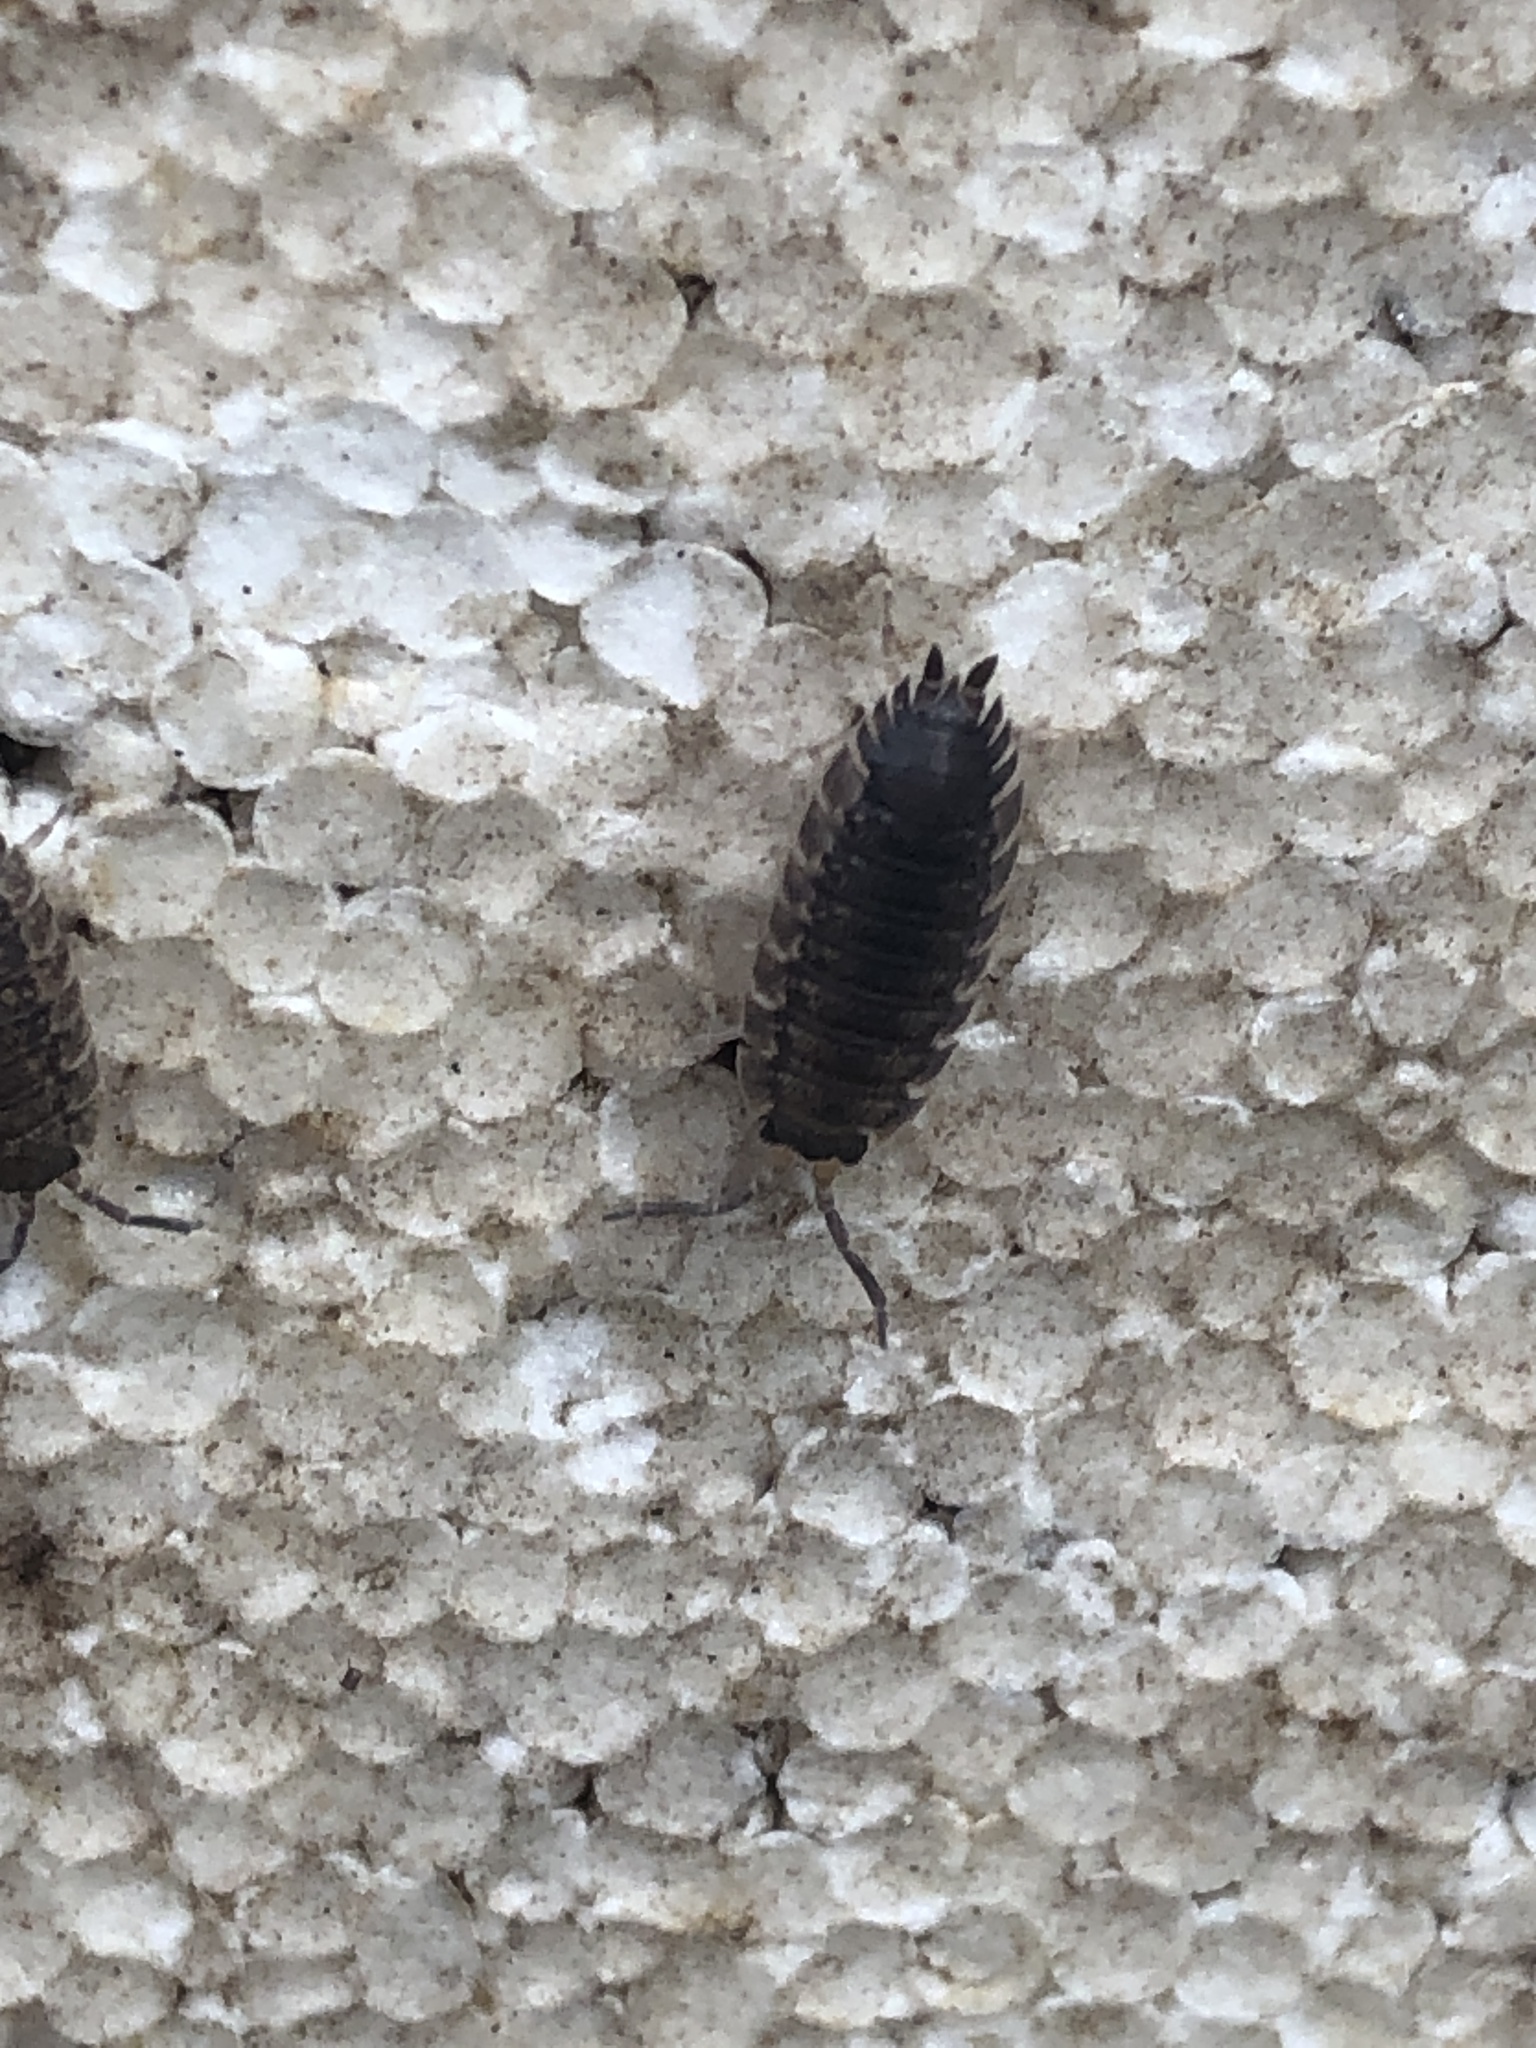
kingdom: Animalia
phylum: Arthropoda
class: Malacostraca
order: Isopoda
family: Porcellionidae
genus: Porcellio
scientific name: Porcellio scaber
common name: Common rough woodlouse
